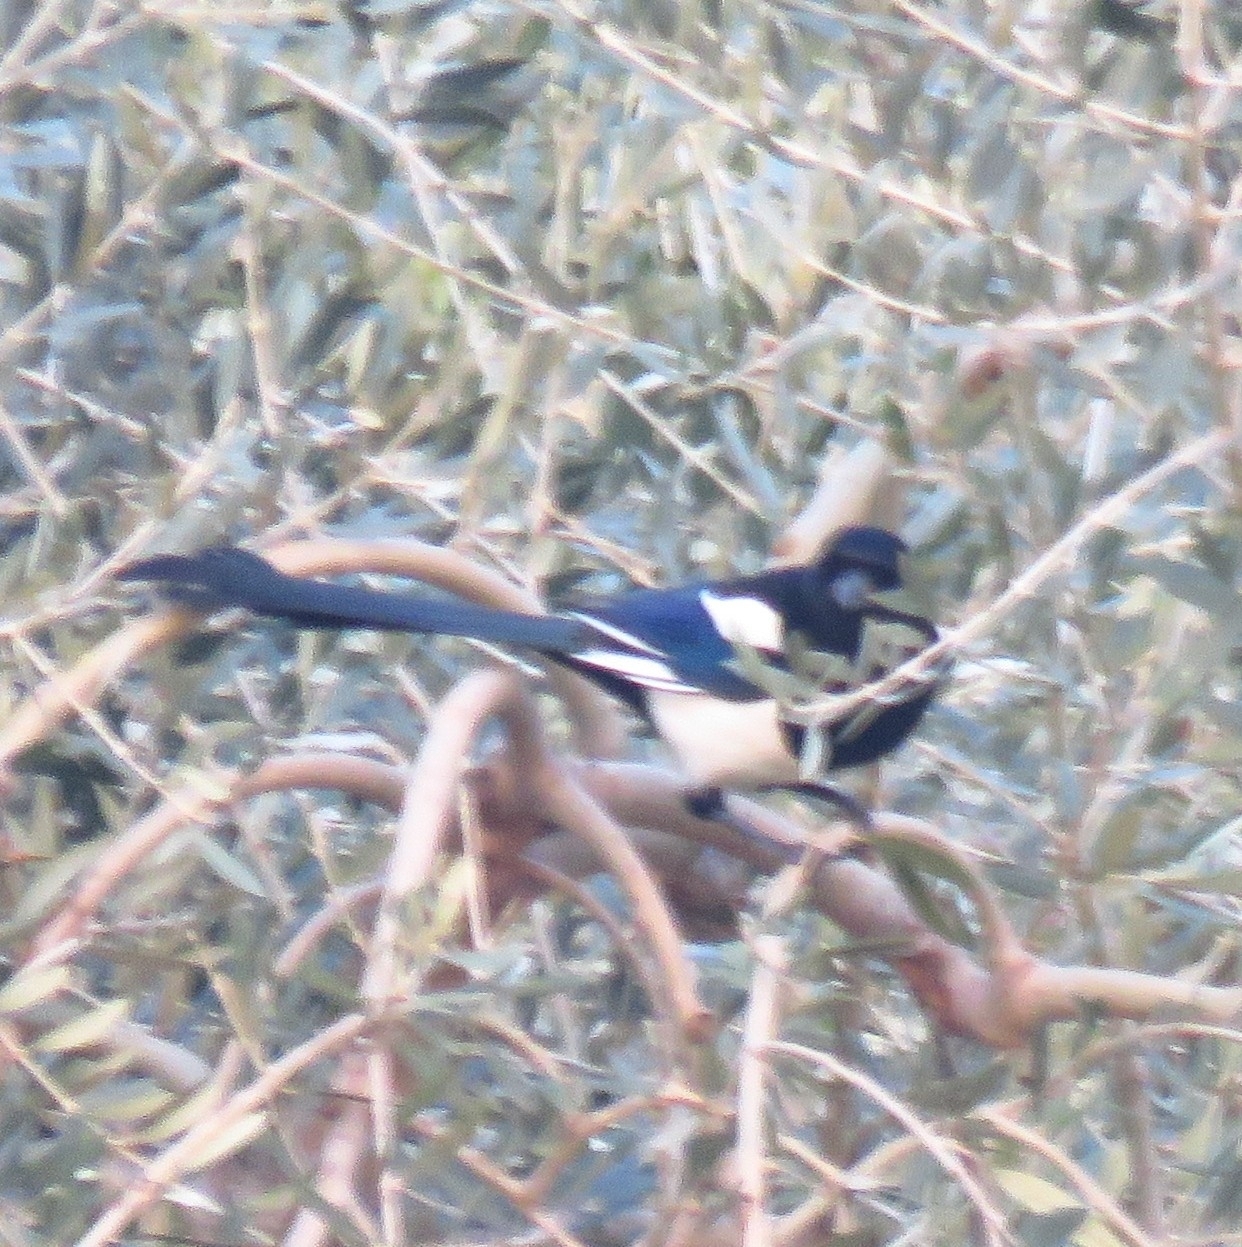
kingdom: Animalia
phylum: Chordata
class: Aves
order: Passeriformes
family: Corvidae
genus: Pica
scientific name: Pica pica
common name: Eurasian magpie
